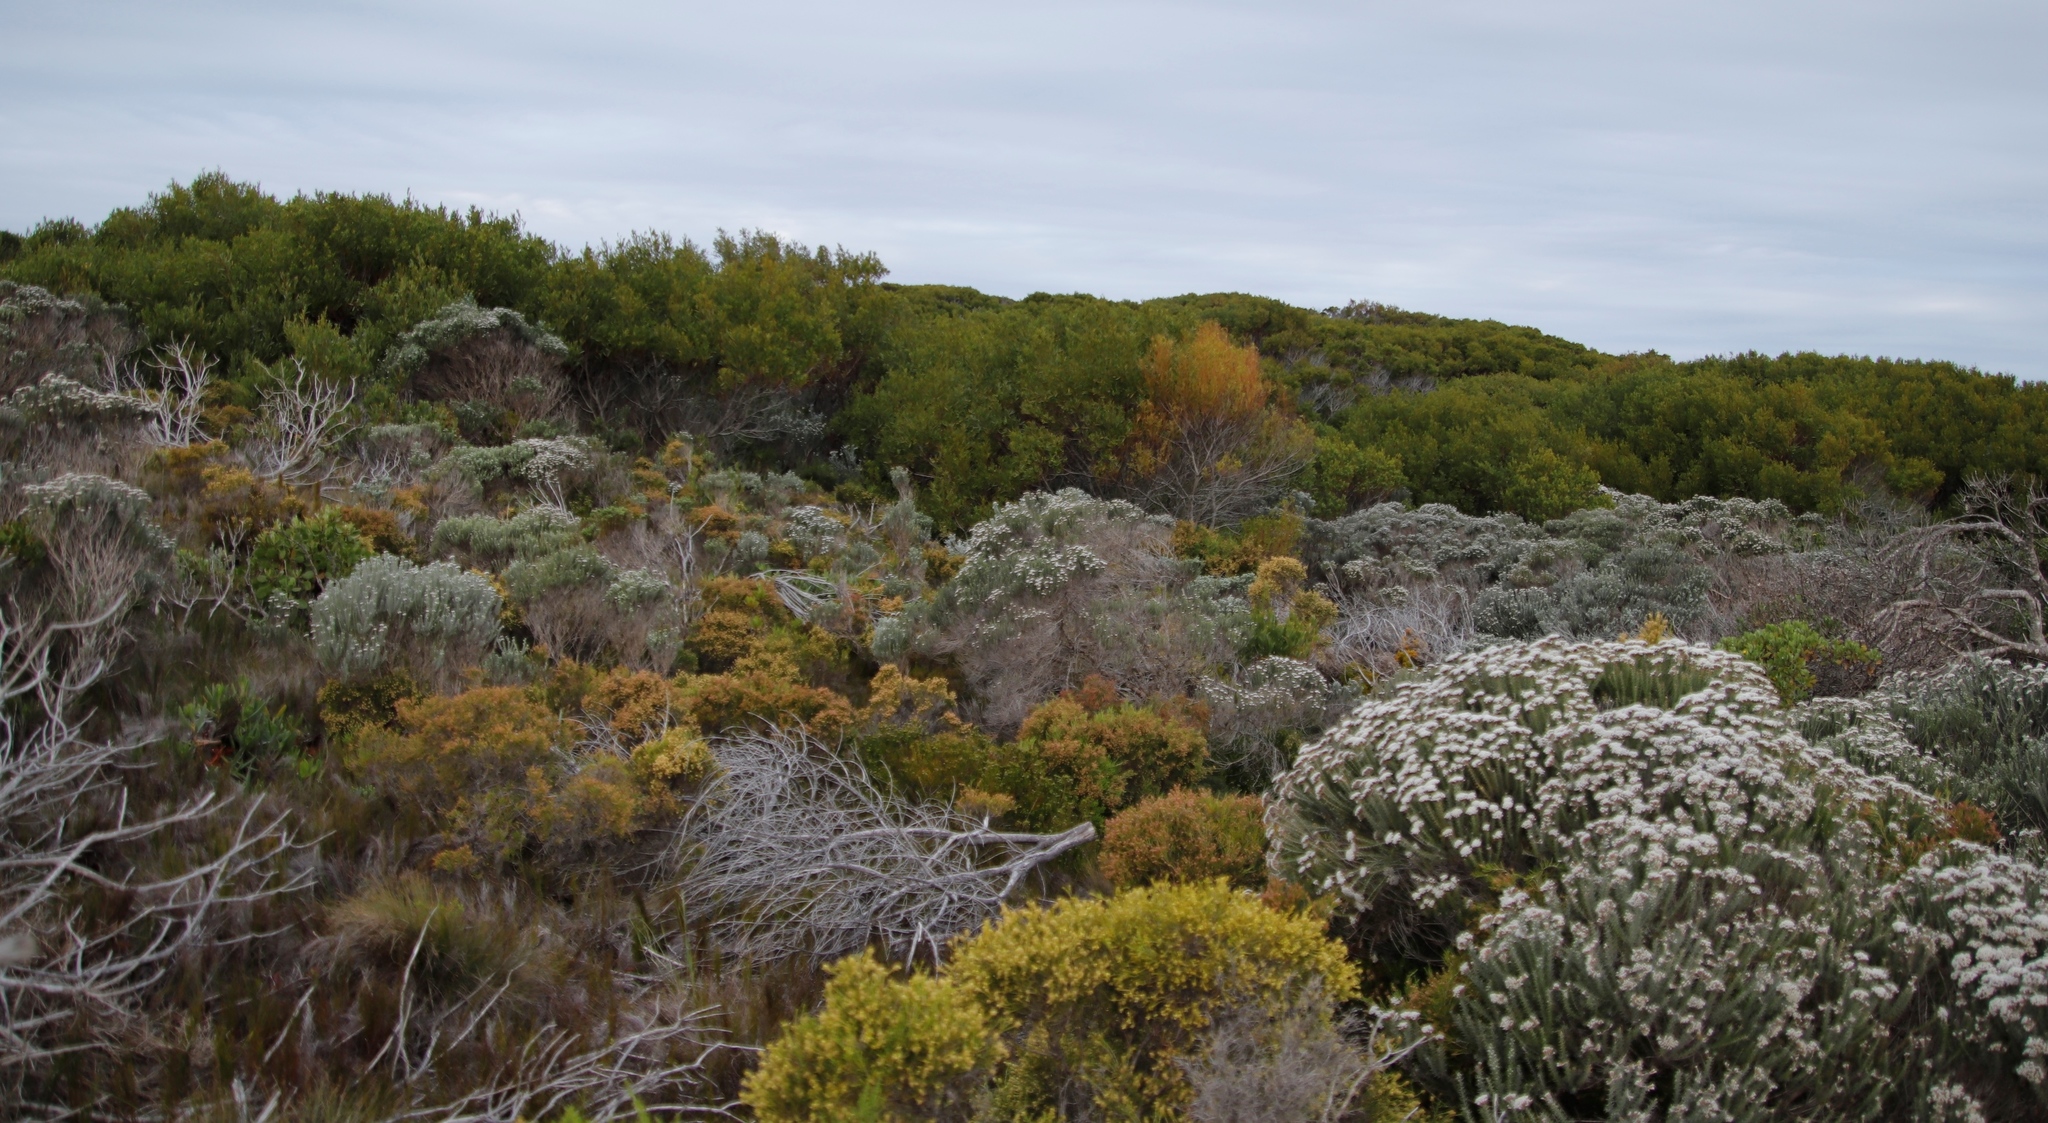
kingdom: Plantae
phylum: Tracheophyta
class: Magnoliopsida
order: Fabales
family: Fabaceae
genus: Acacia
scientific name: Acacia cyclops
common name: Coastal wattle
